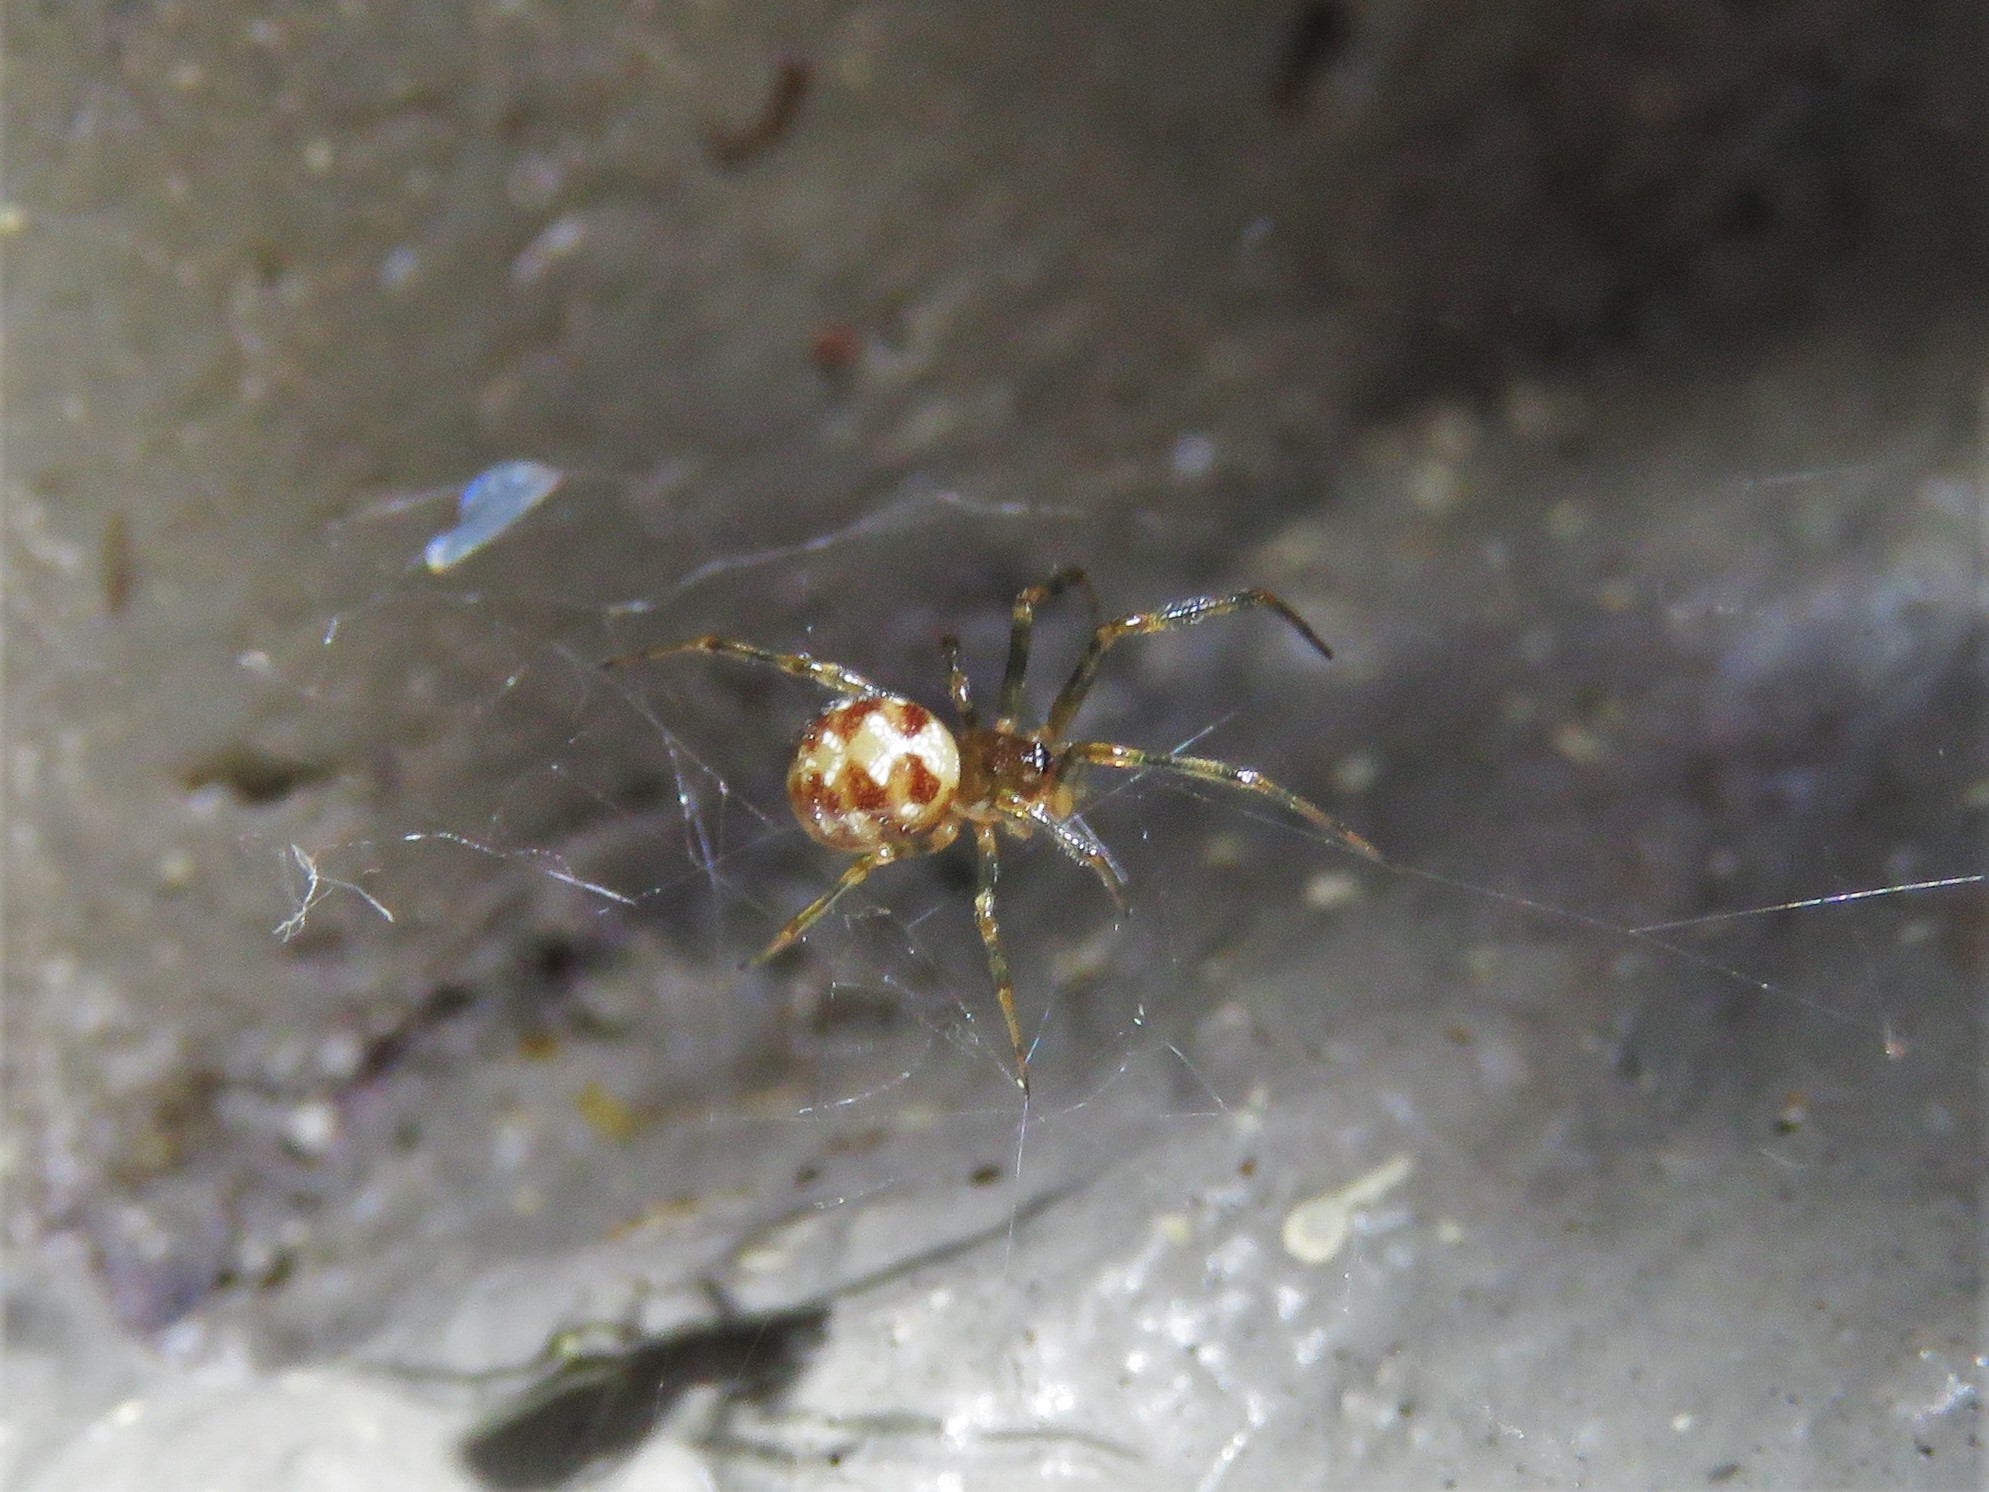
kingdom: Animalia
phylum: Arthropoda
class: Arachnida
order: Araneae
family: Theridiidae
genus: Steatoda
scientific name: Steatoda triangulosa
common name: Triangulate bud spider
